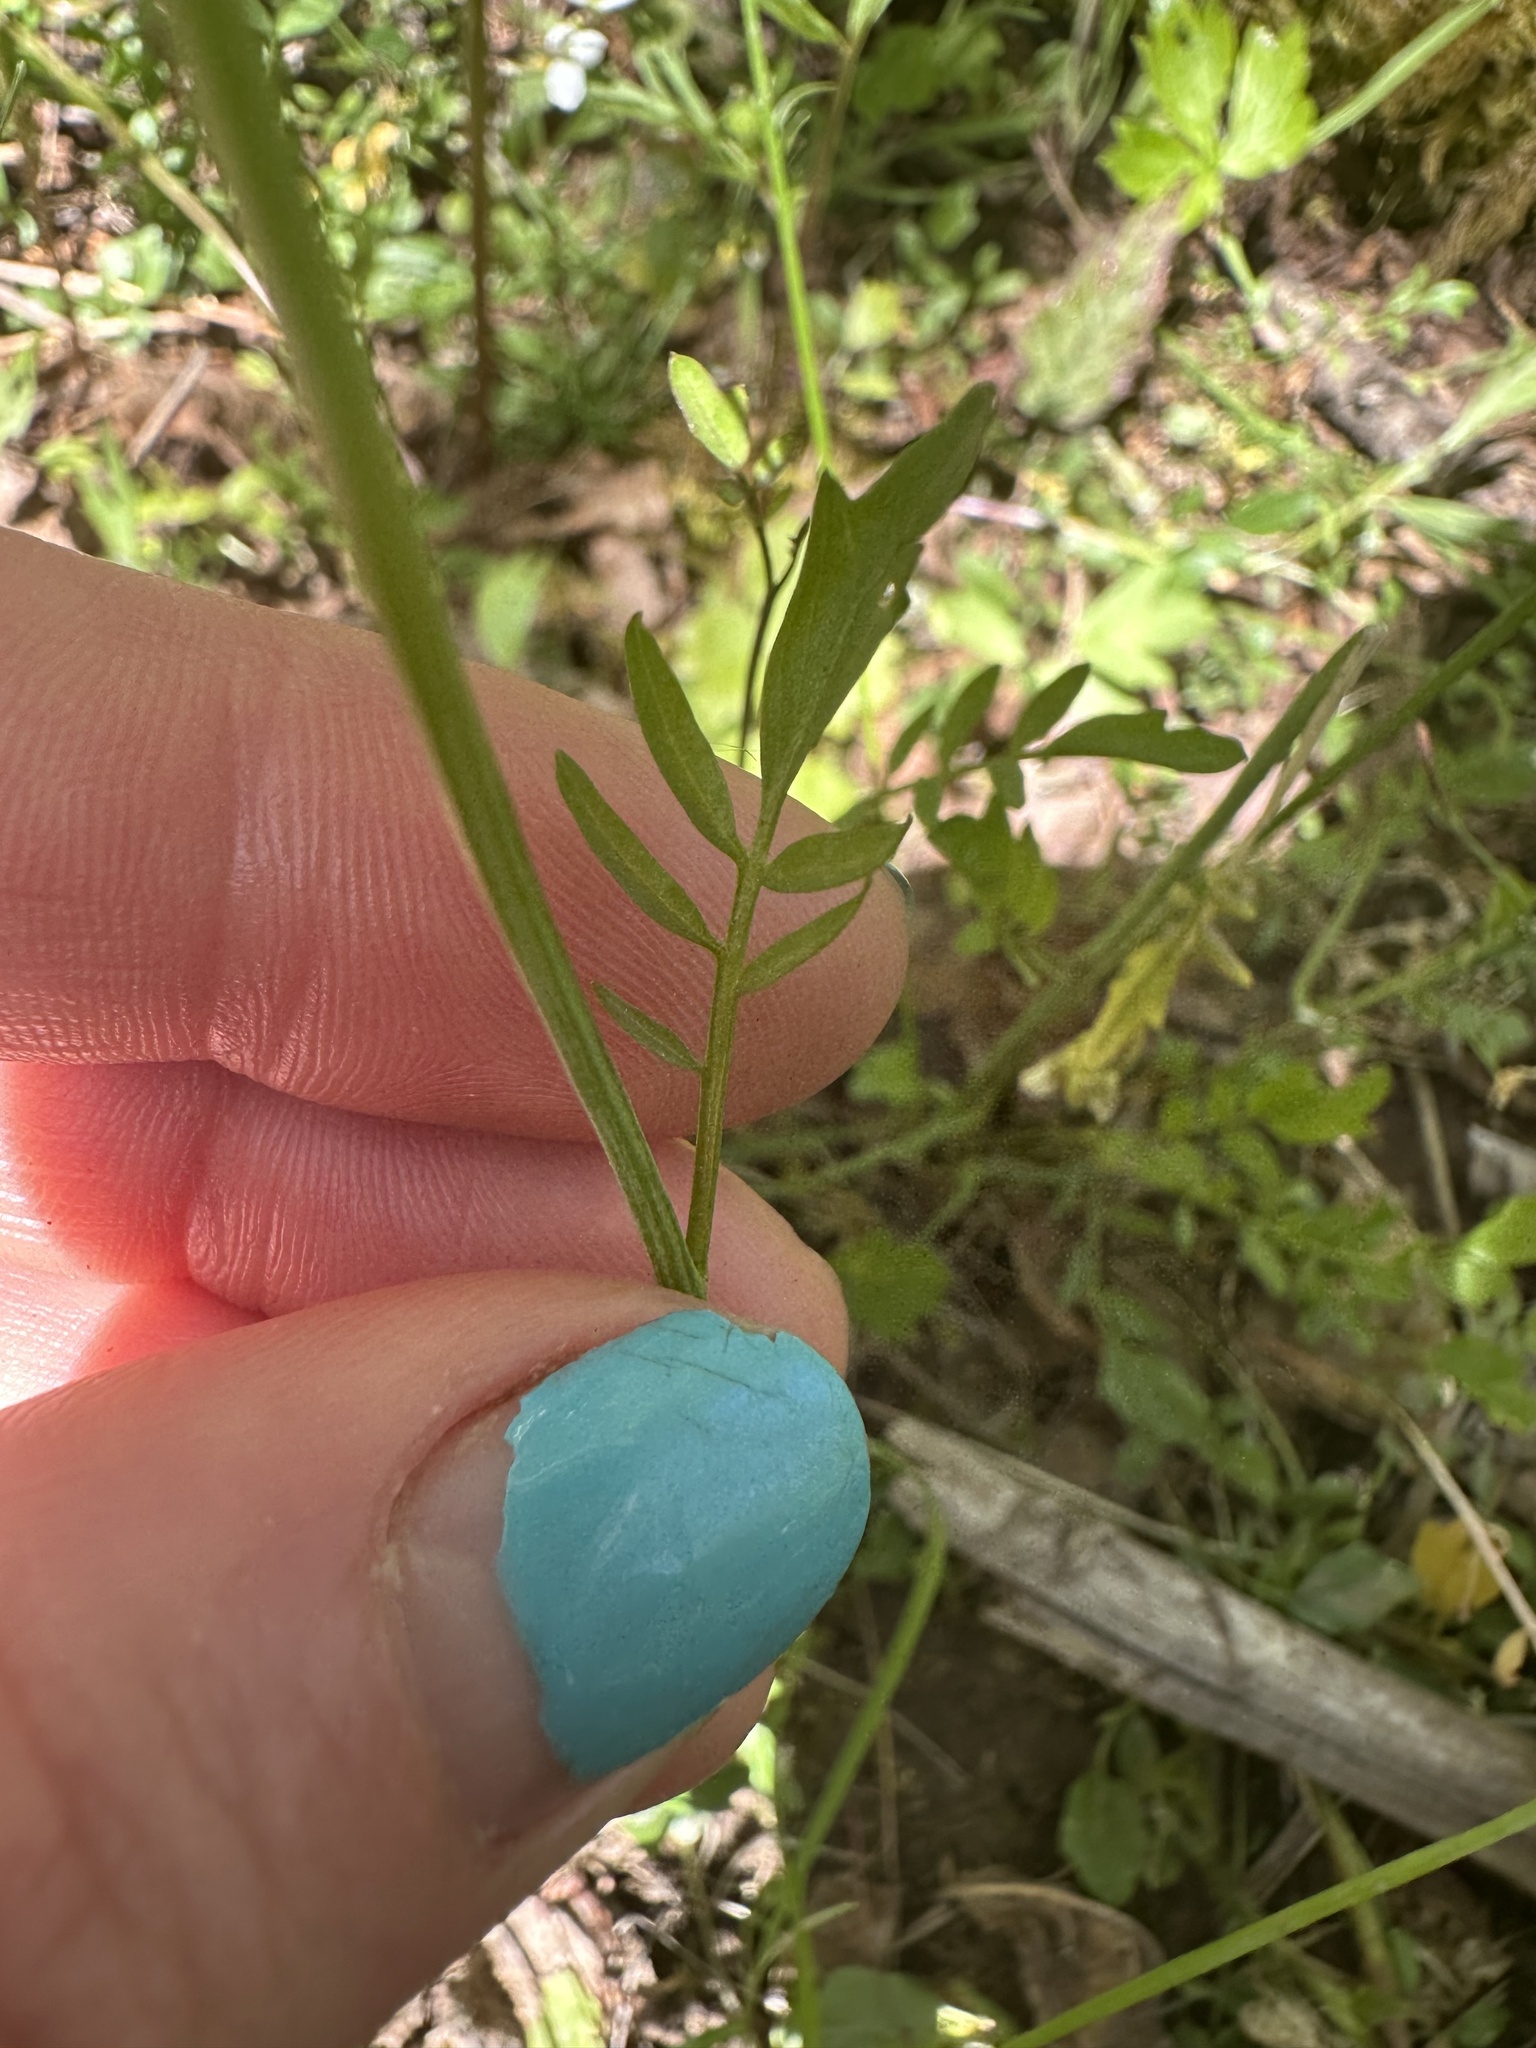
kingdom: Plantae
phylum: Tracheophyta
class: Magnoliopsida
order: Brassicales
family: Brassicaceae
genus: Cardamine
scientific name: Cardamine penduliflora
